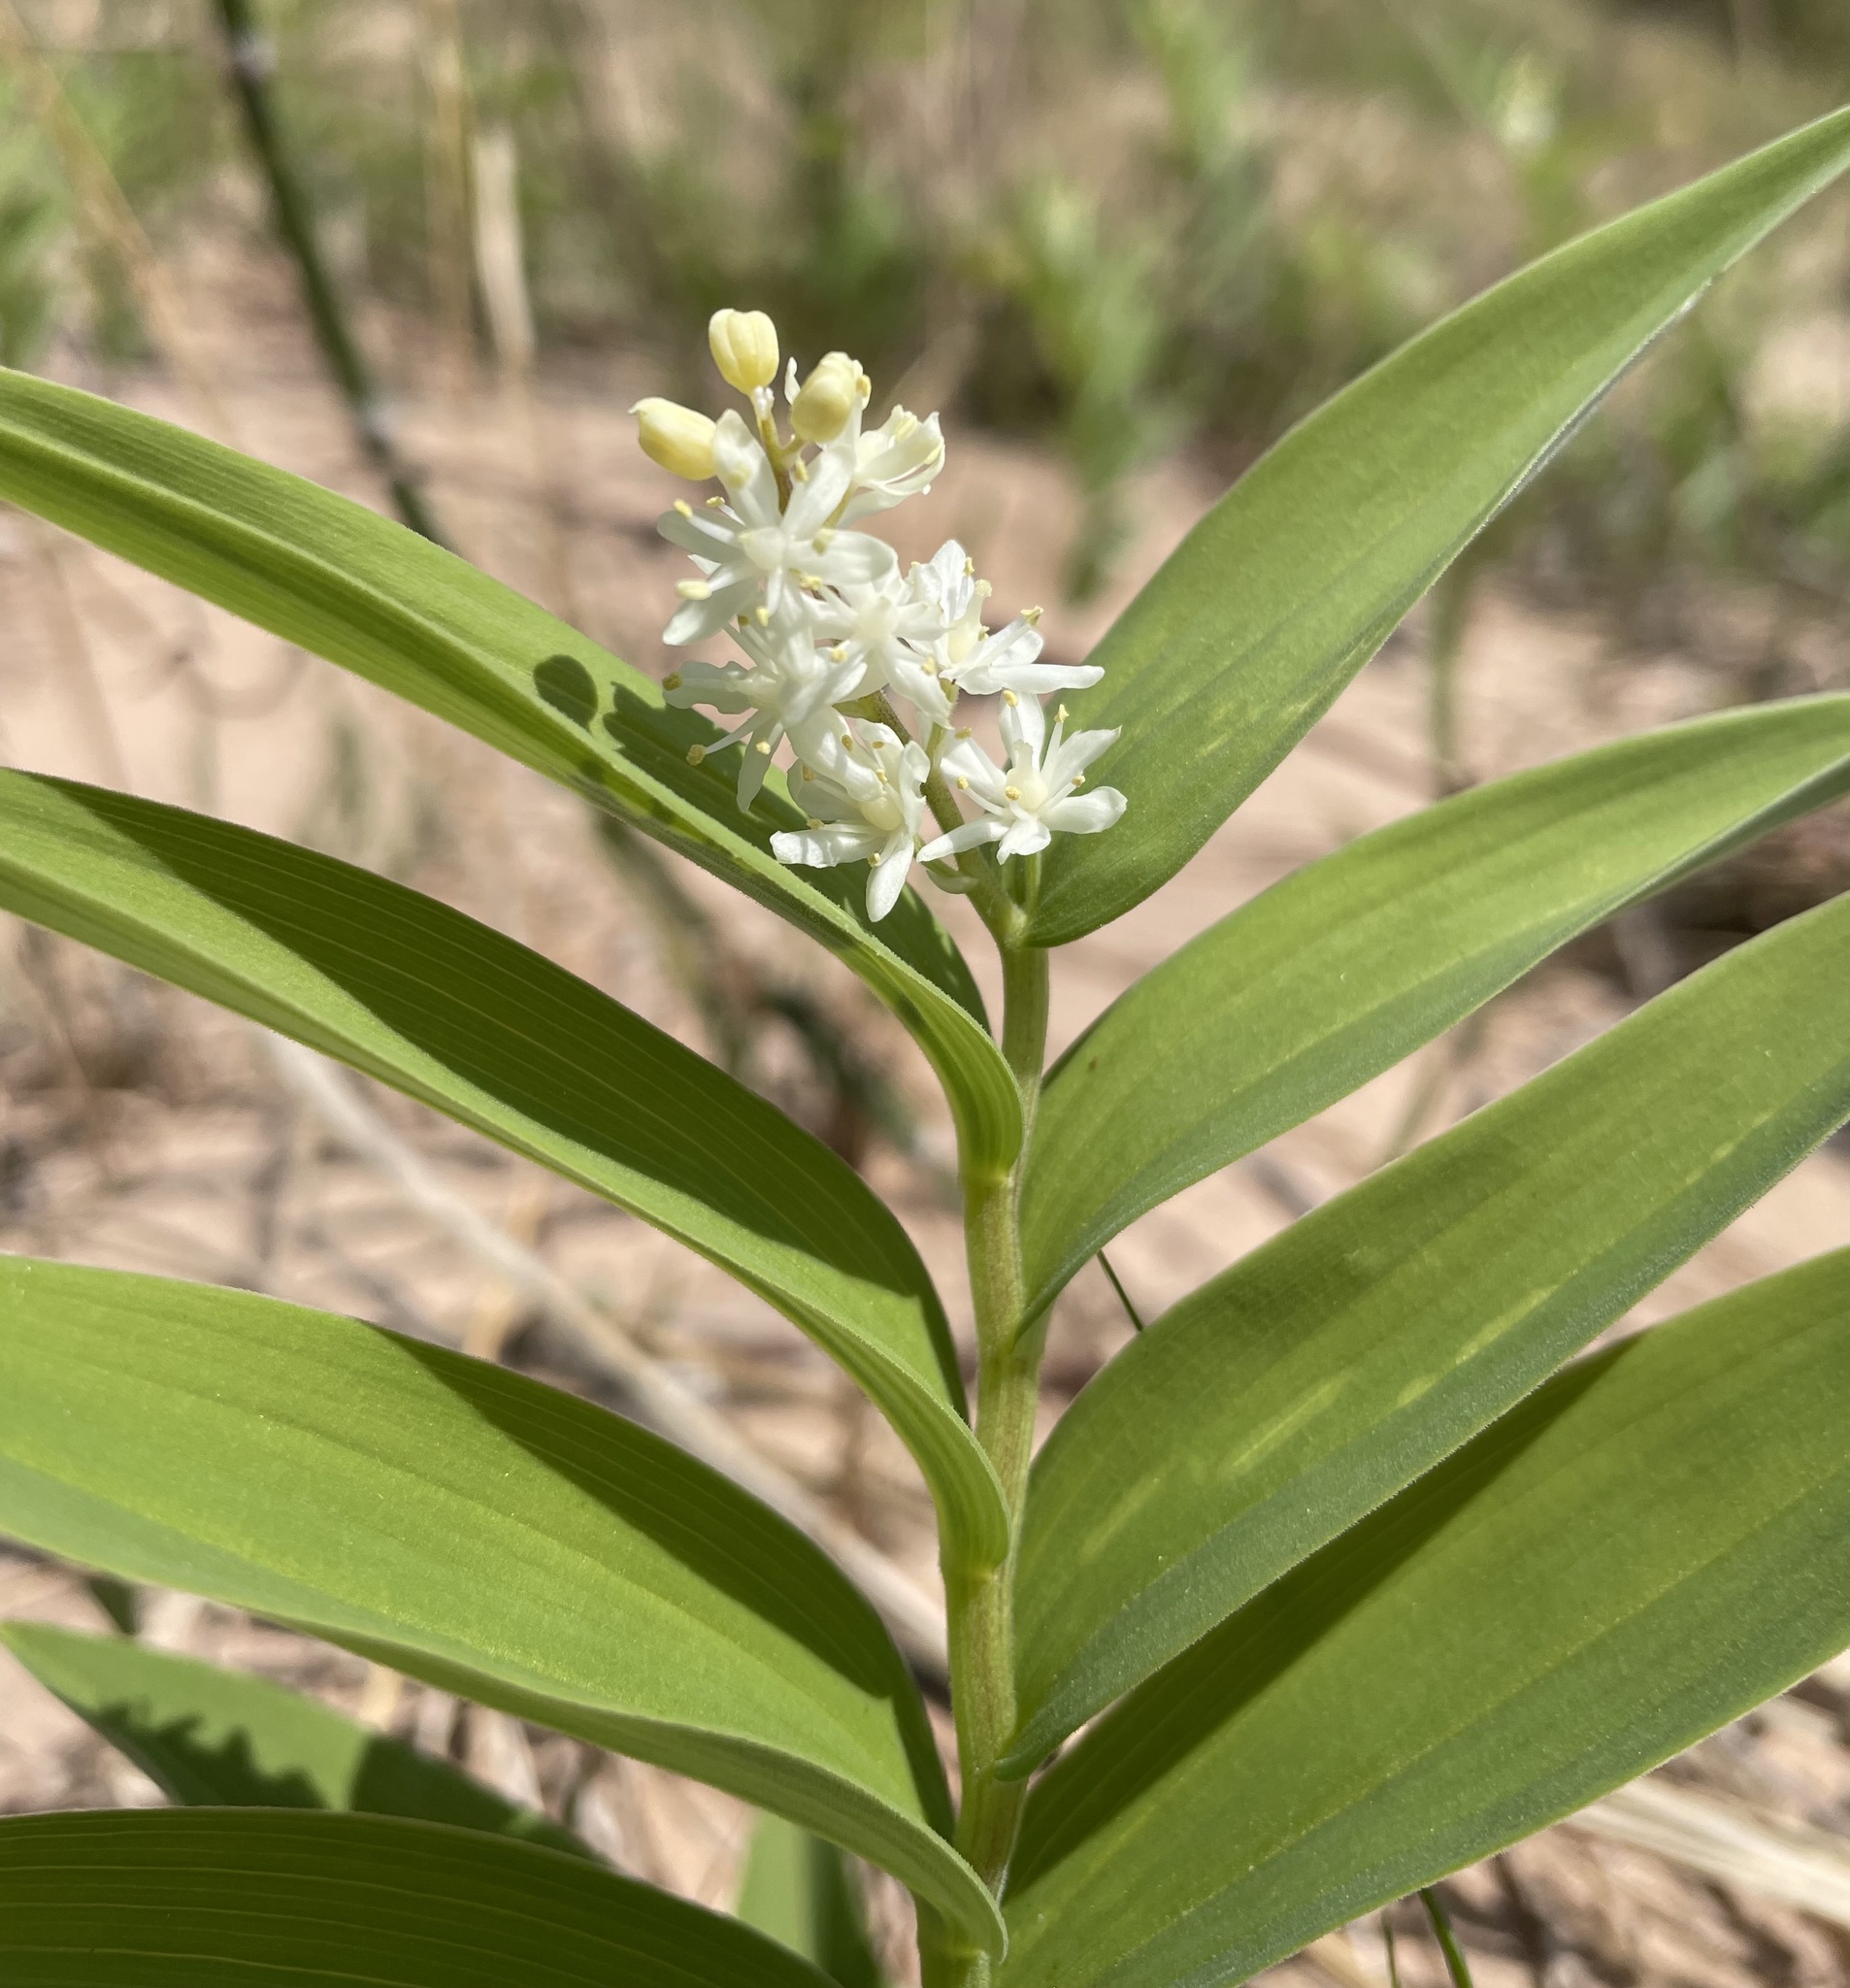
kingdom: Plantae
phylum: Tracheophyta
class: Liliopsida
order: Asparagales
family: Asparagaceae
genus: Maianthemum
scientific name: Maianthemum stellatum
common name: Little false solomon's seal
